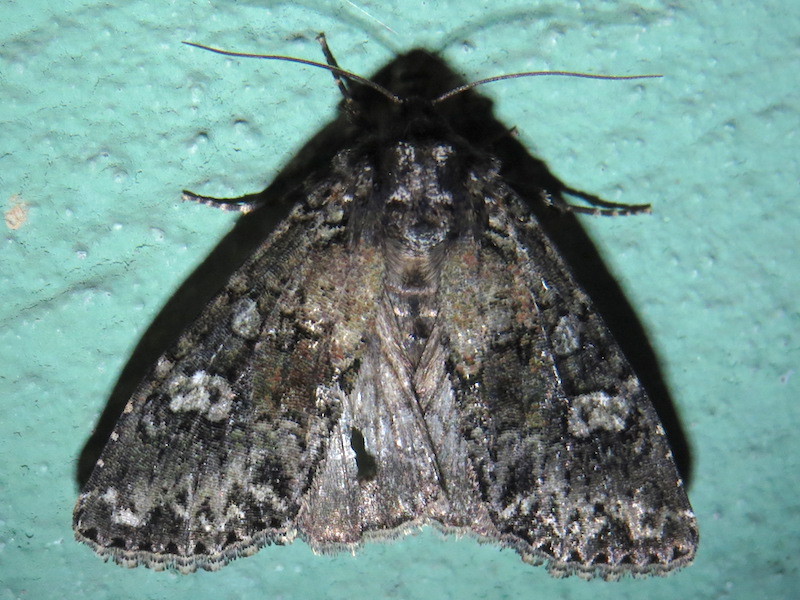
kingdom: Animalia
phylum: Arthropoda
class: Insecta
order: Lepidoptera
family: Noctuidae
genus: Melanchra
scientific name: Melanchra adjuncta
